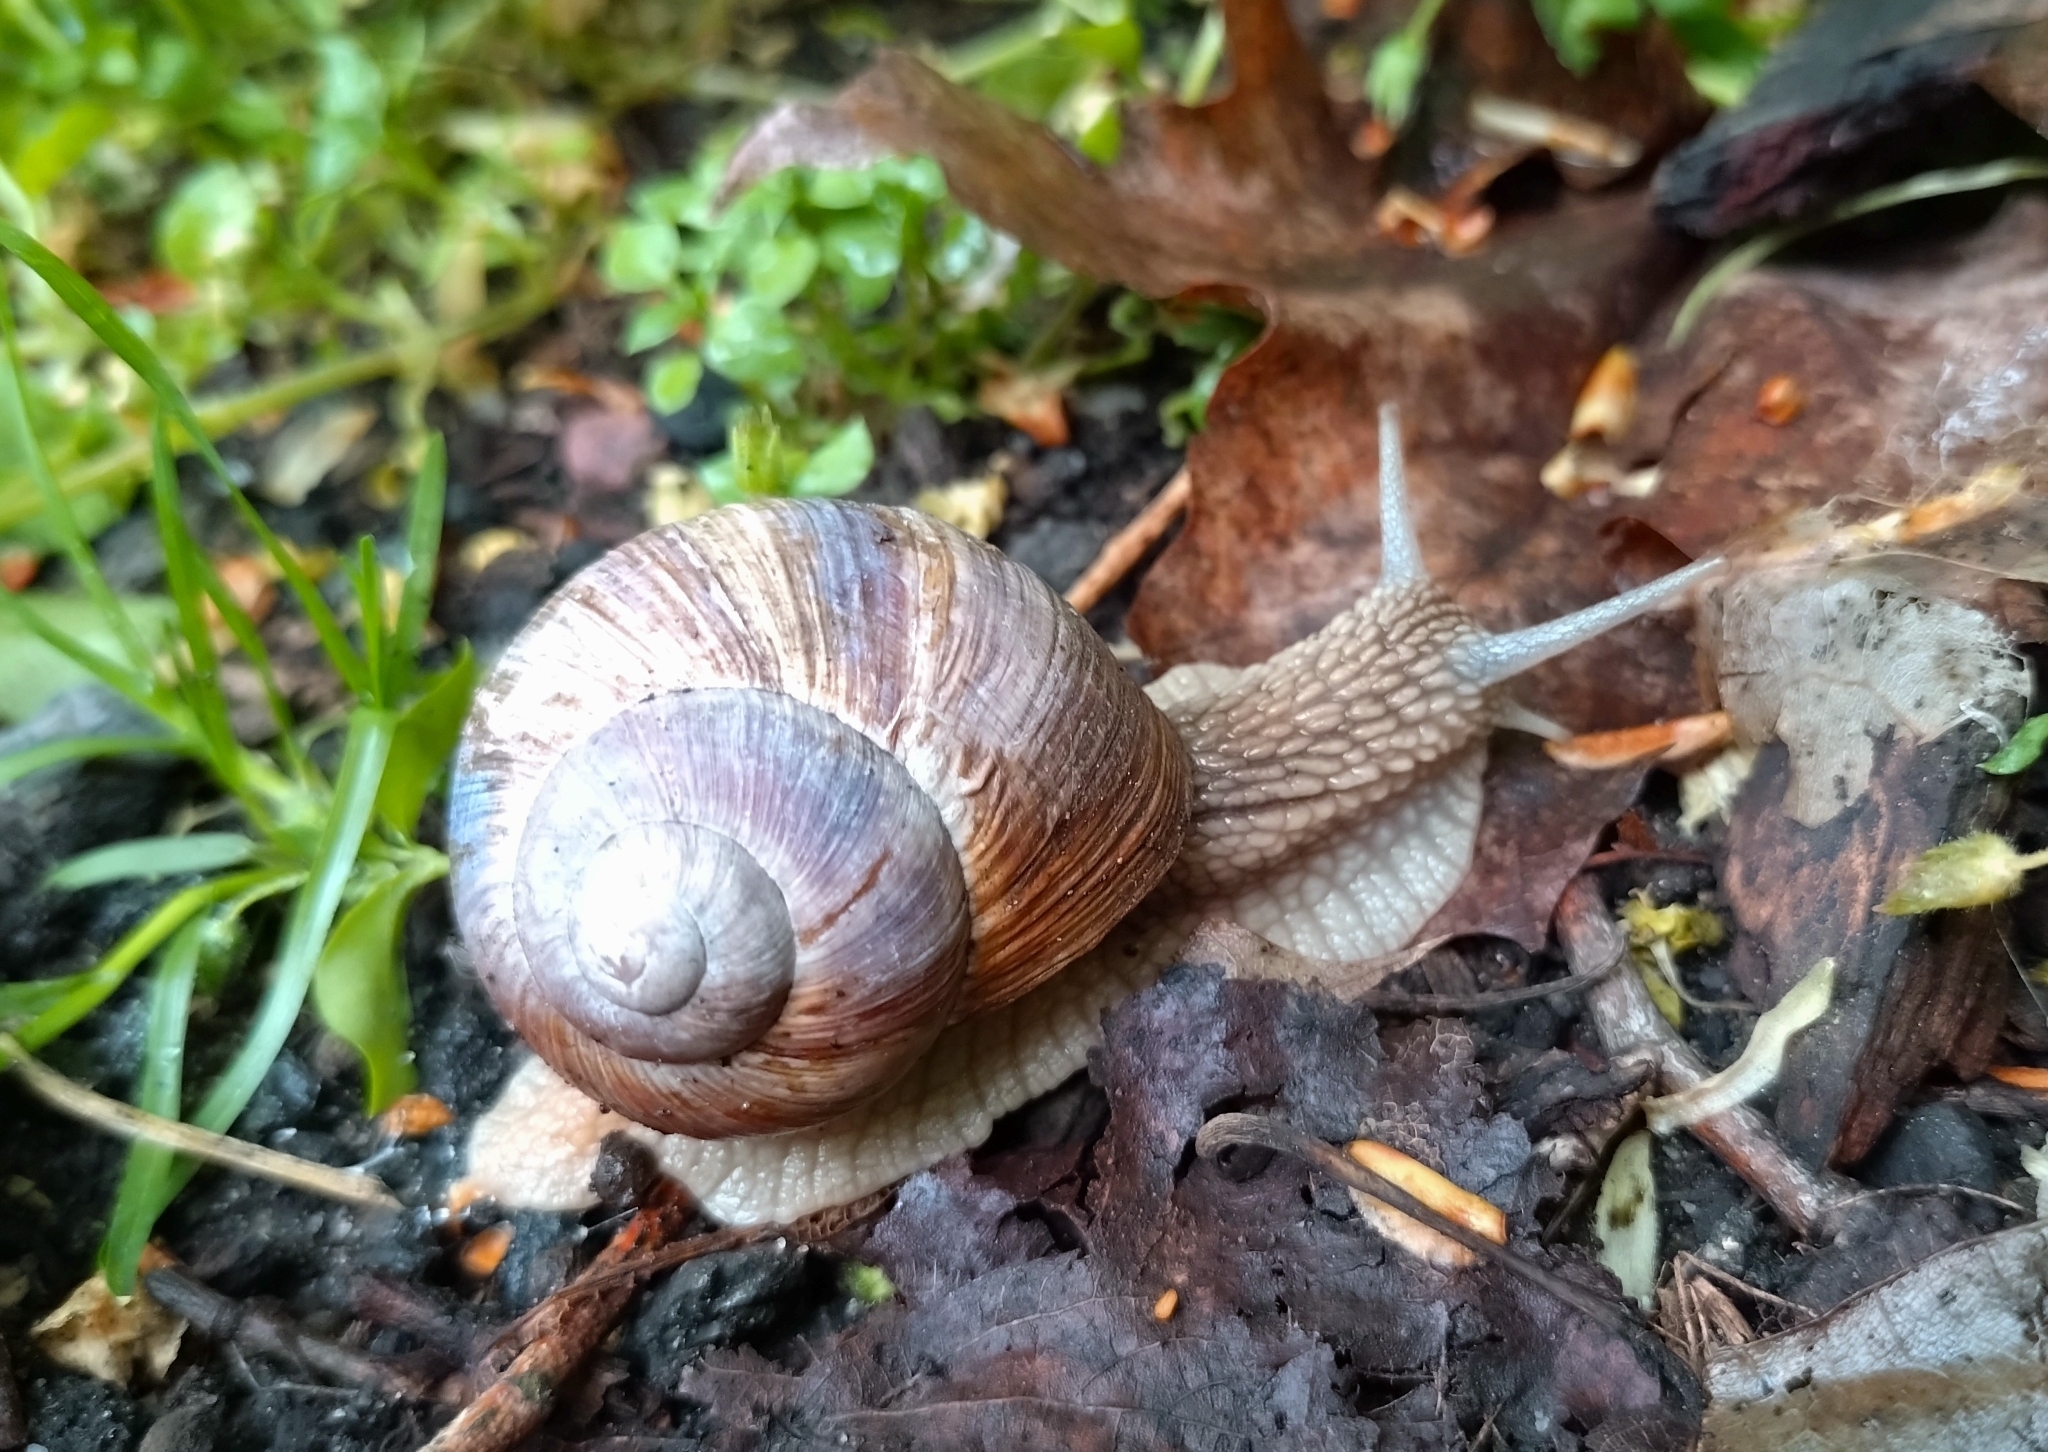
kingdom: Animalia
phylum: Mollusca
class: Gastropoda
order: Stylommatophora
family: Helicidae
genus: Helix
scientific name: Helix pomatia
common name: Roman snail
